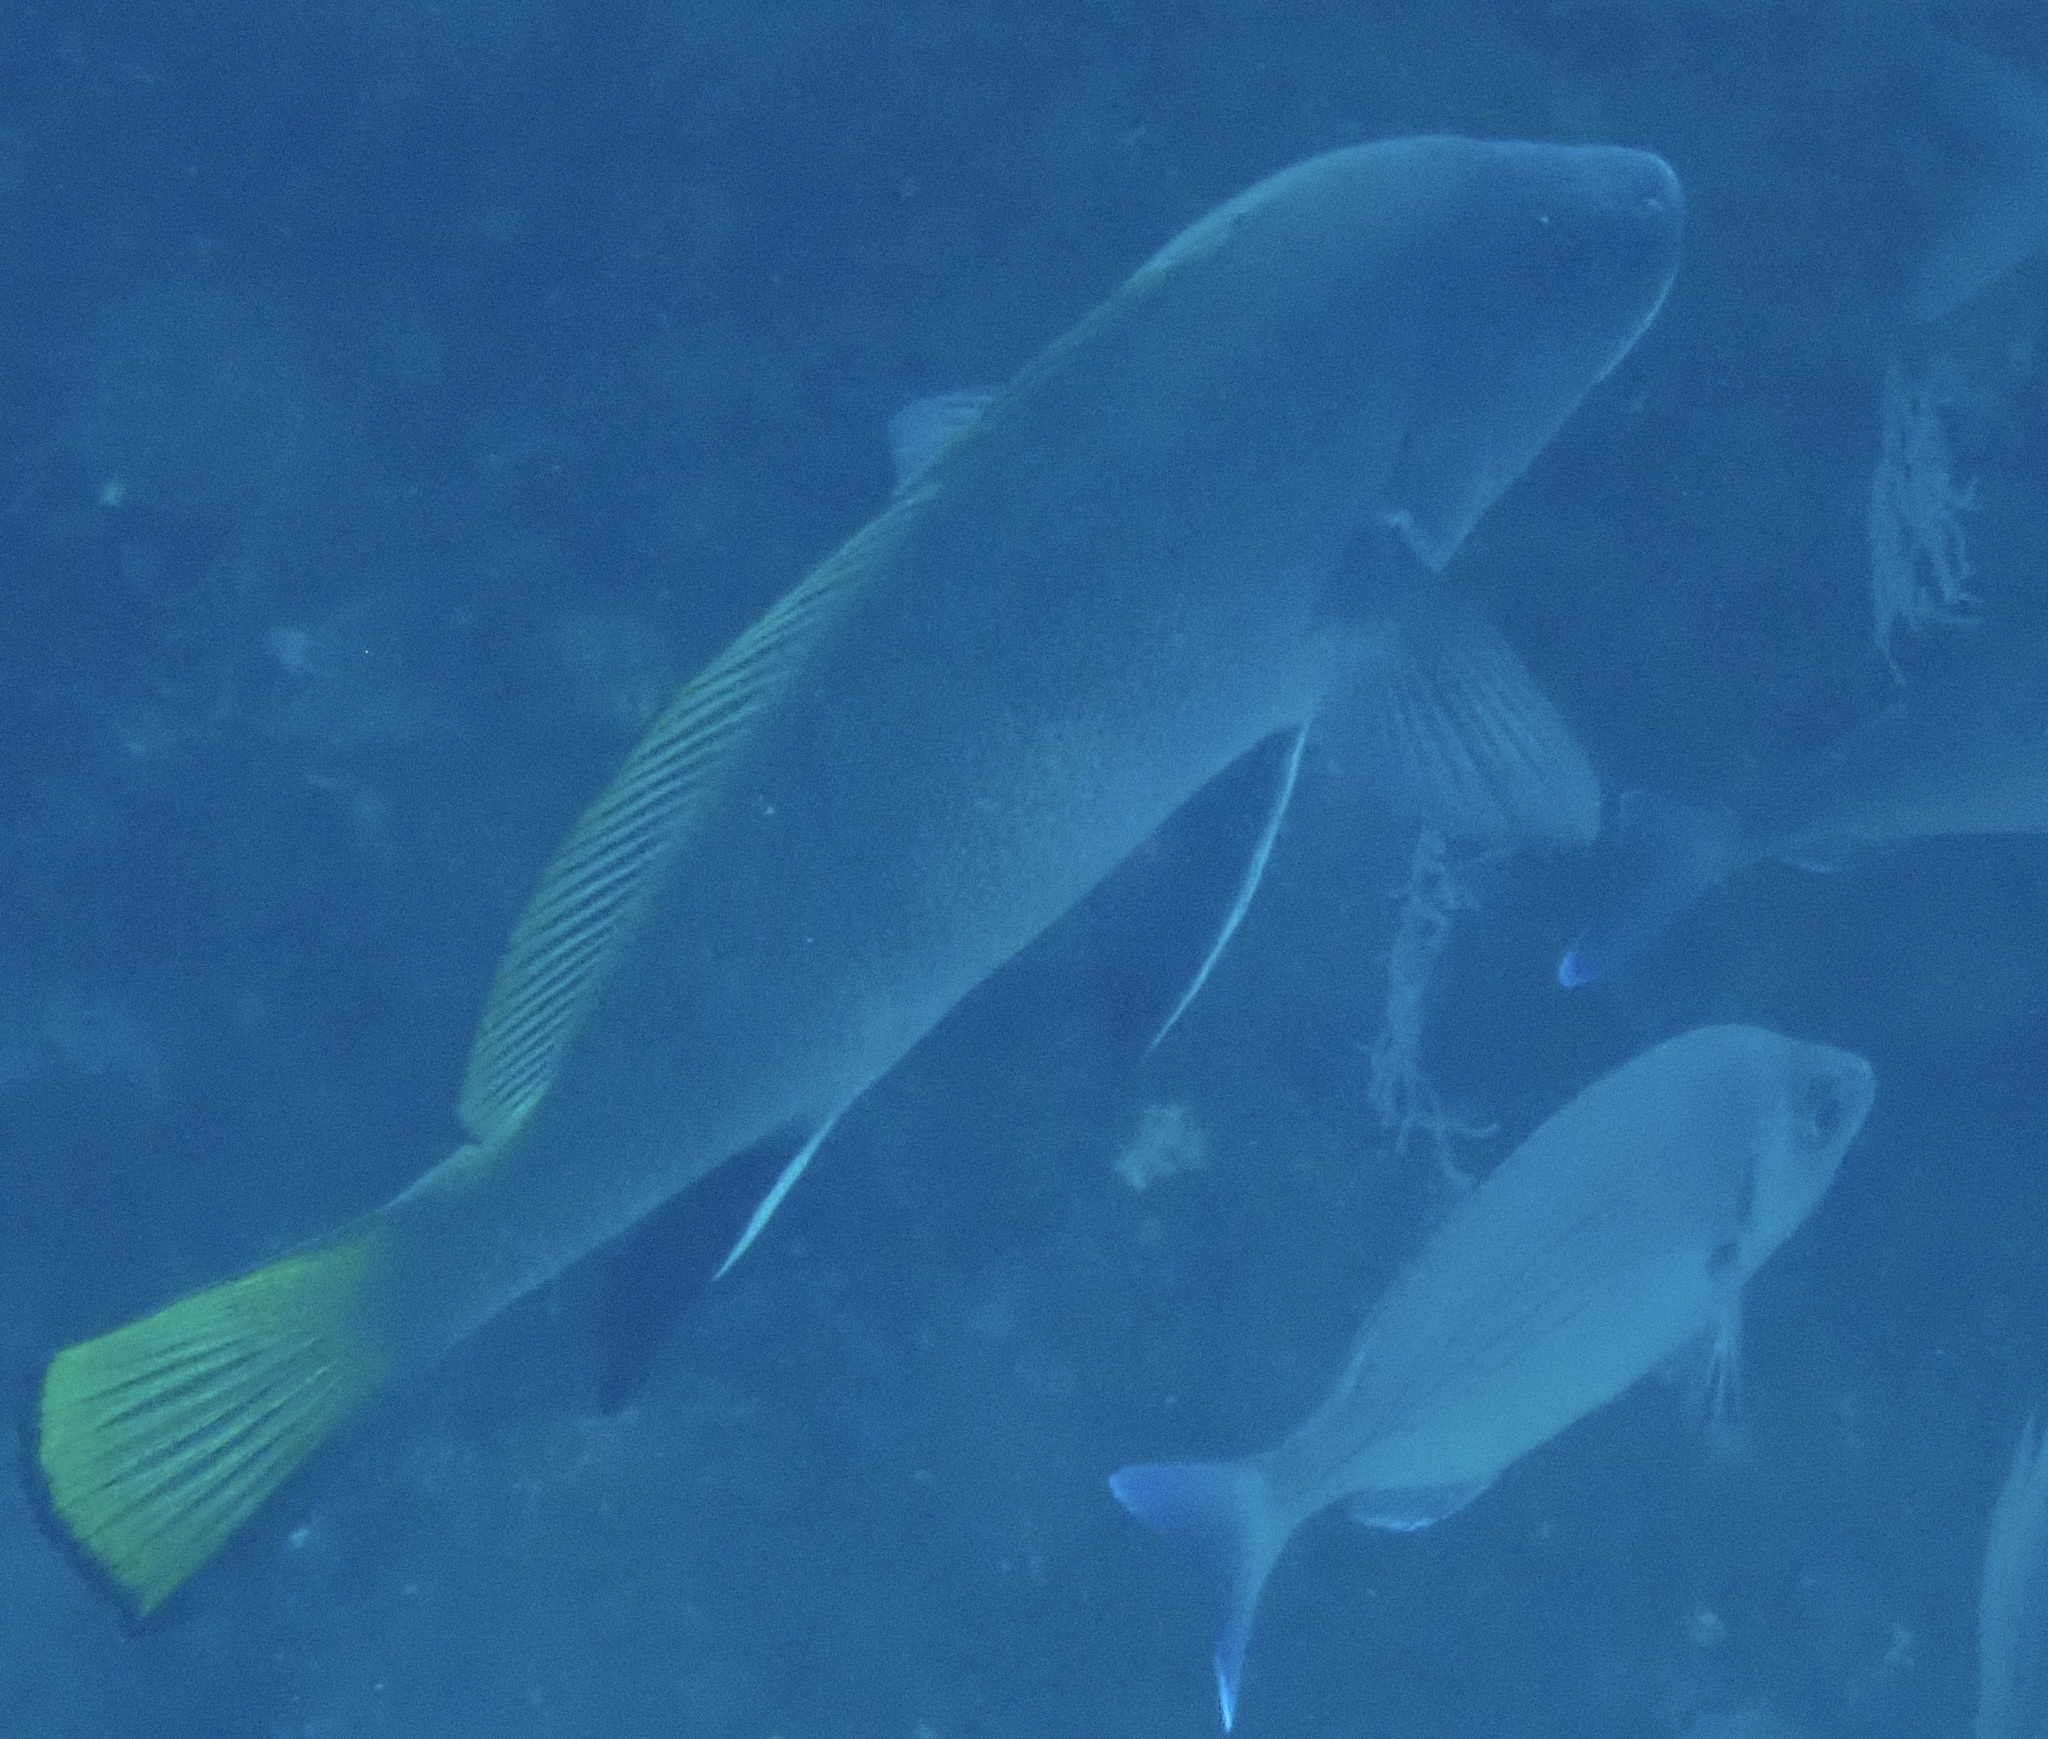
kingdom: Animalia
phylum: Chordata
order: Perciformes
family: Sciaenidae
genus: Sciaena
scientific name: Sciaena umbra
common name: Brown meagre
